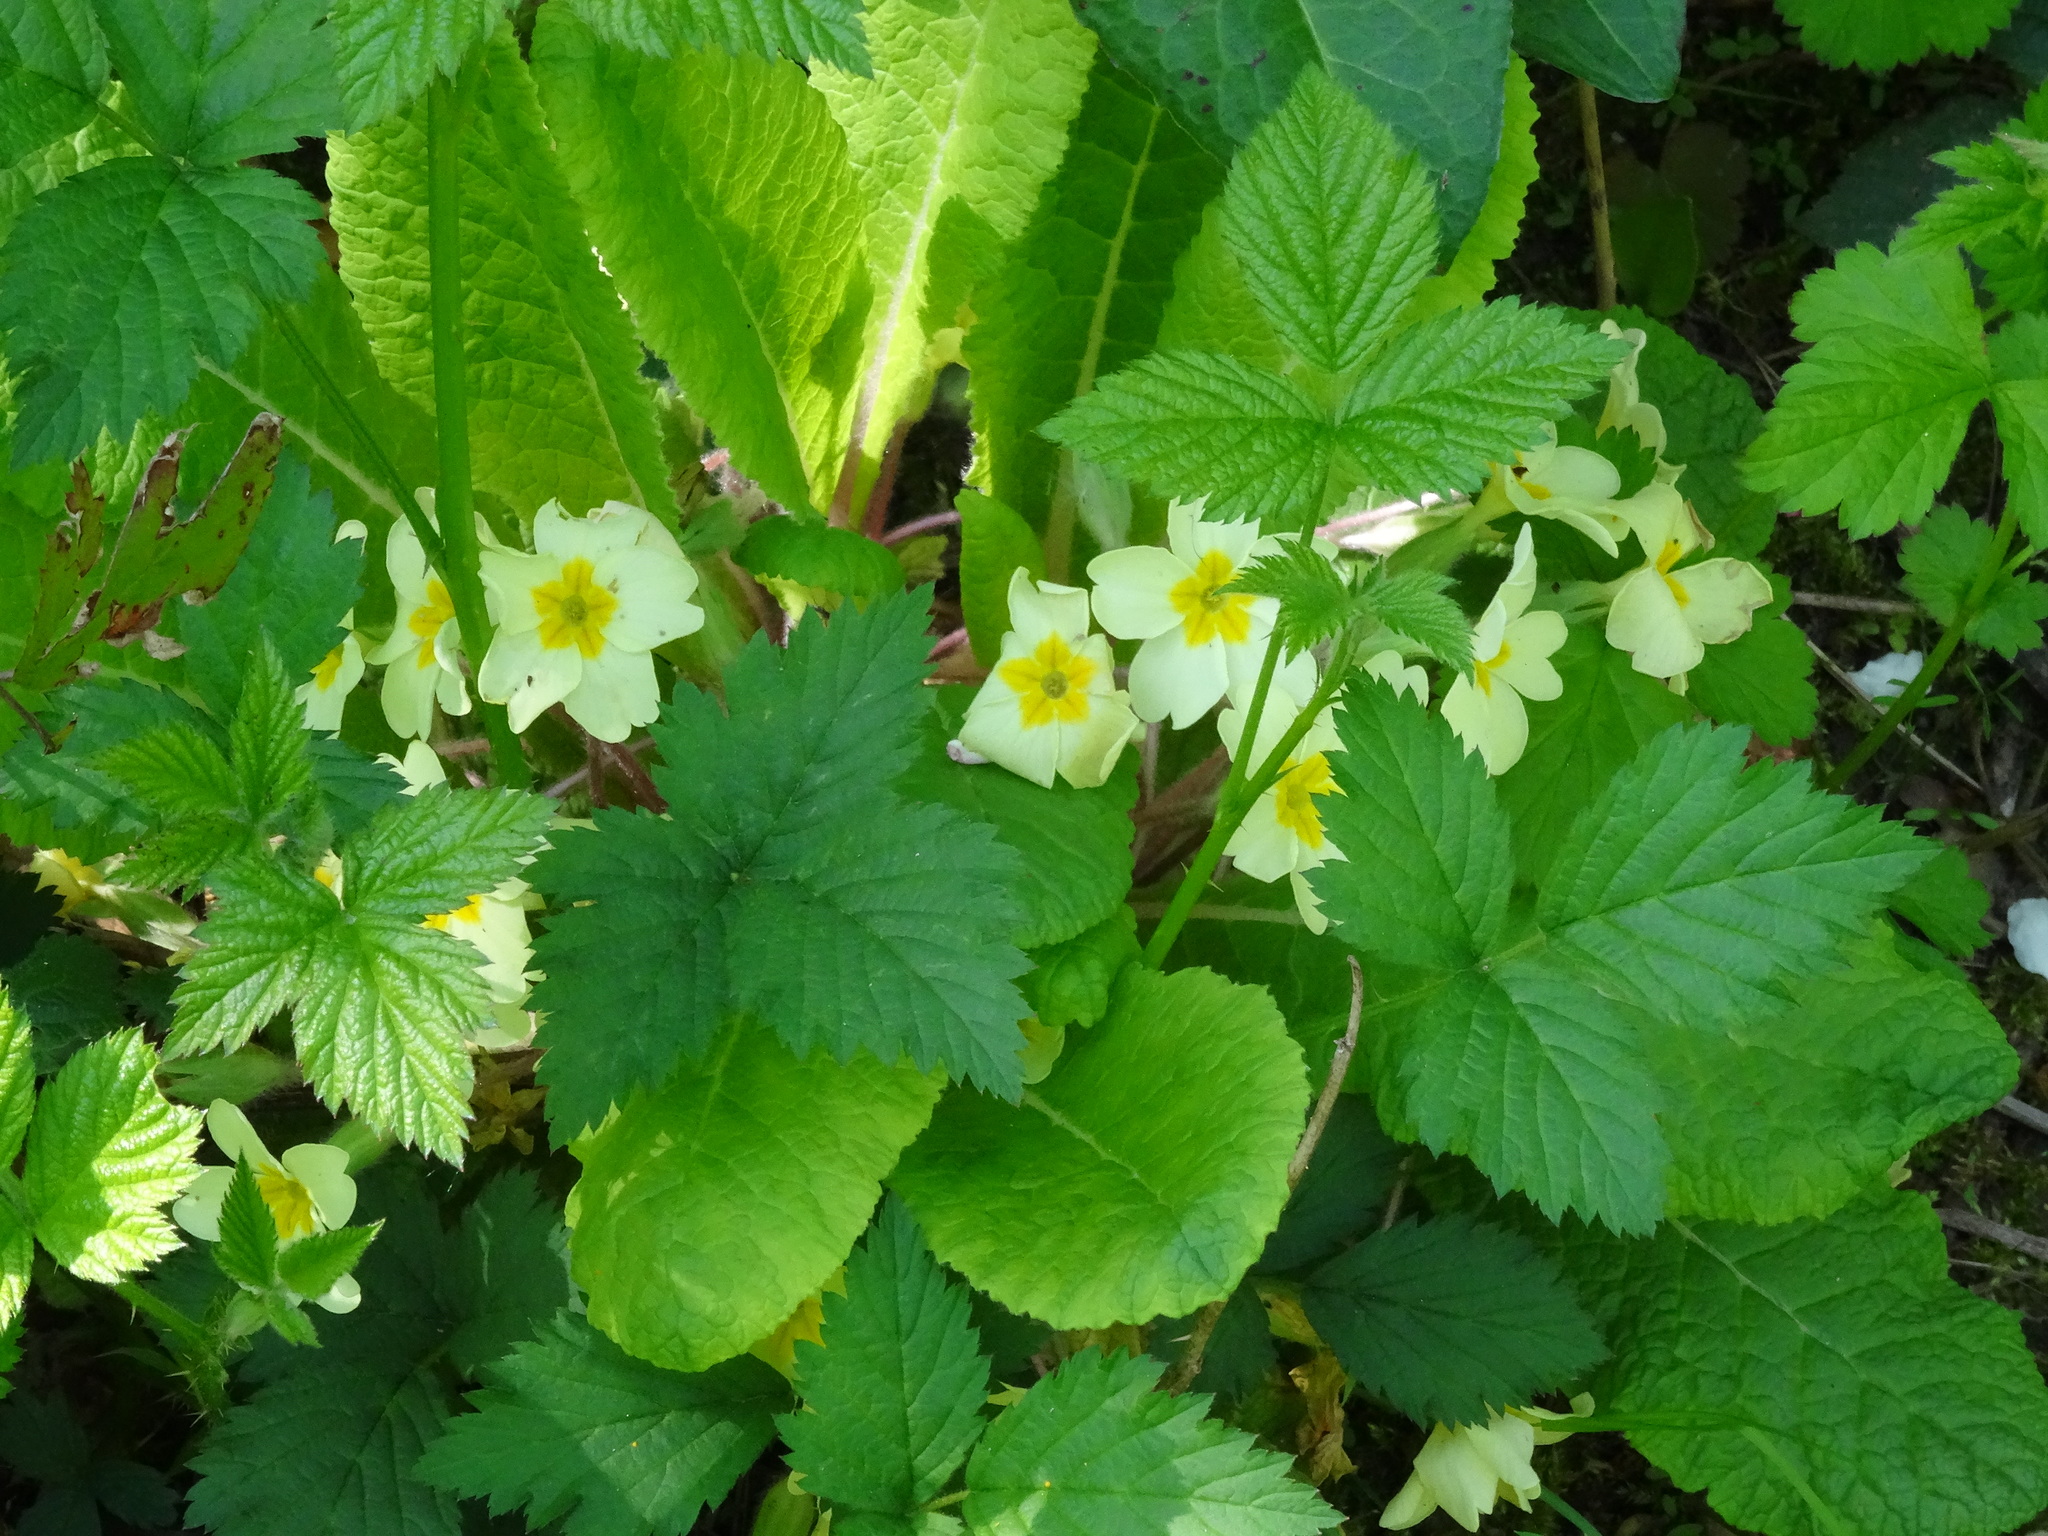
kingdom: Plantae
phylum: Tracheophyta
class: Magnoliopsida
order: Ericales
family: Primulaceae
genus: Primula
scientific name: Primula vulgaris
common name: Primrose
